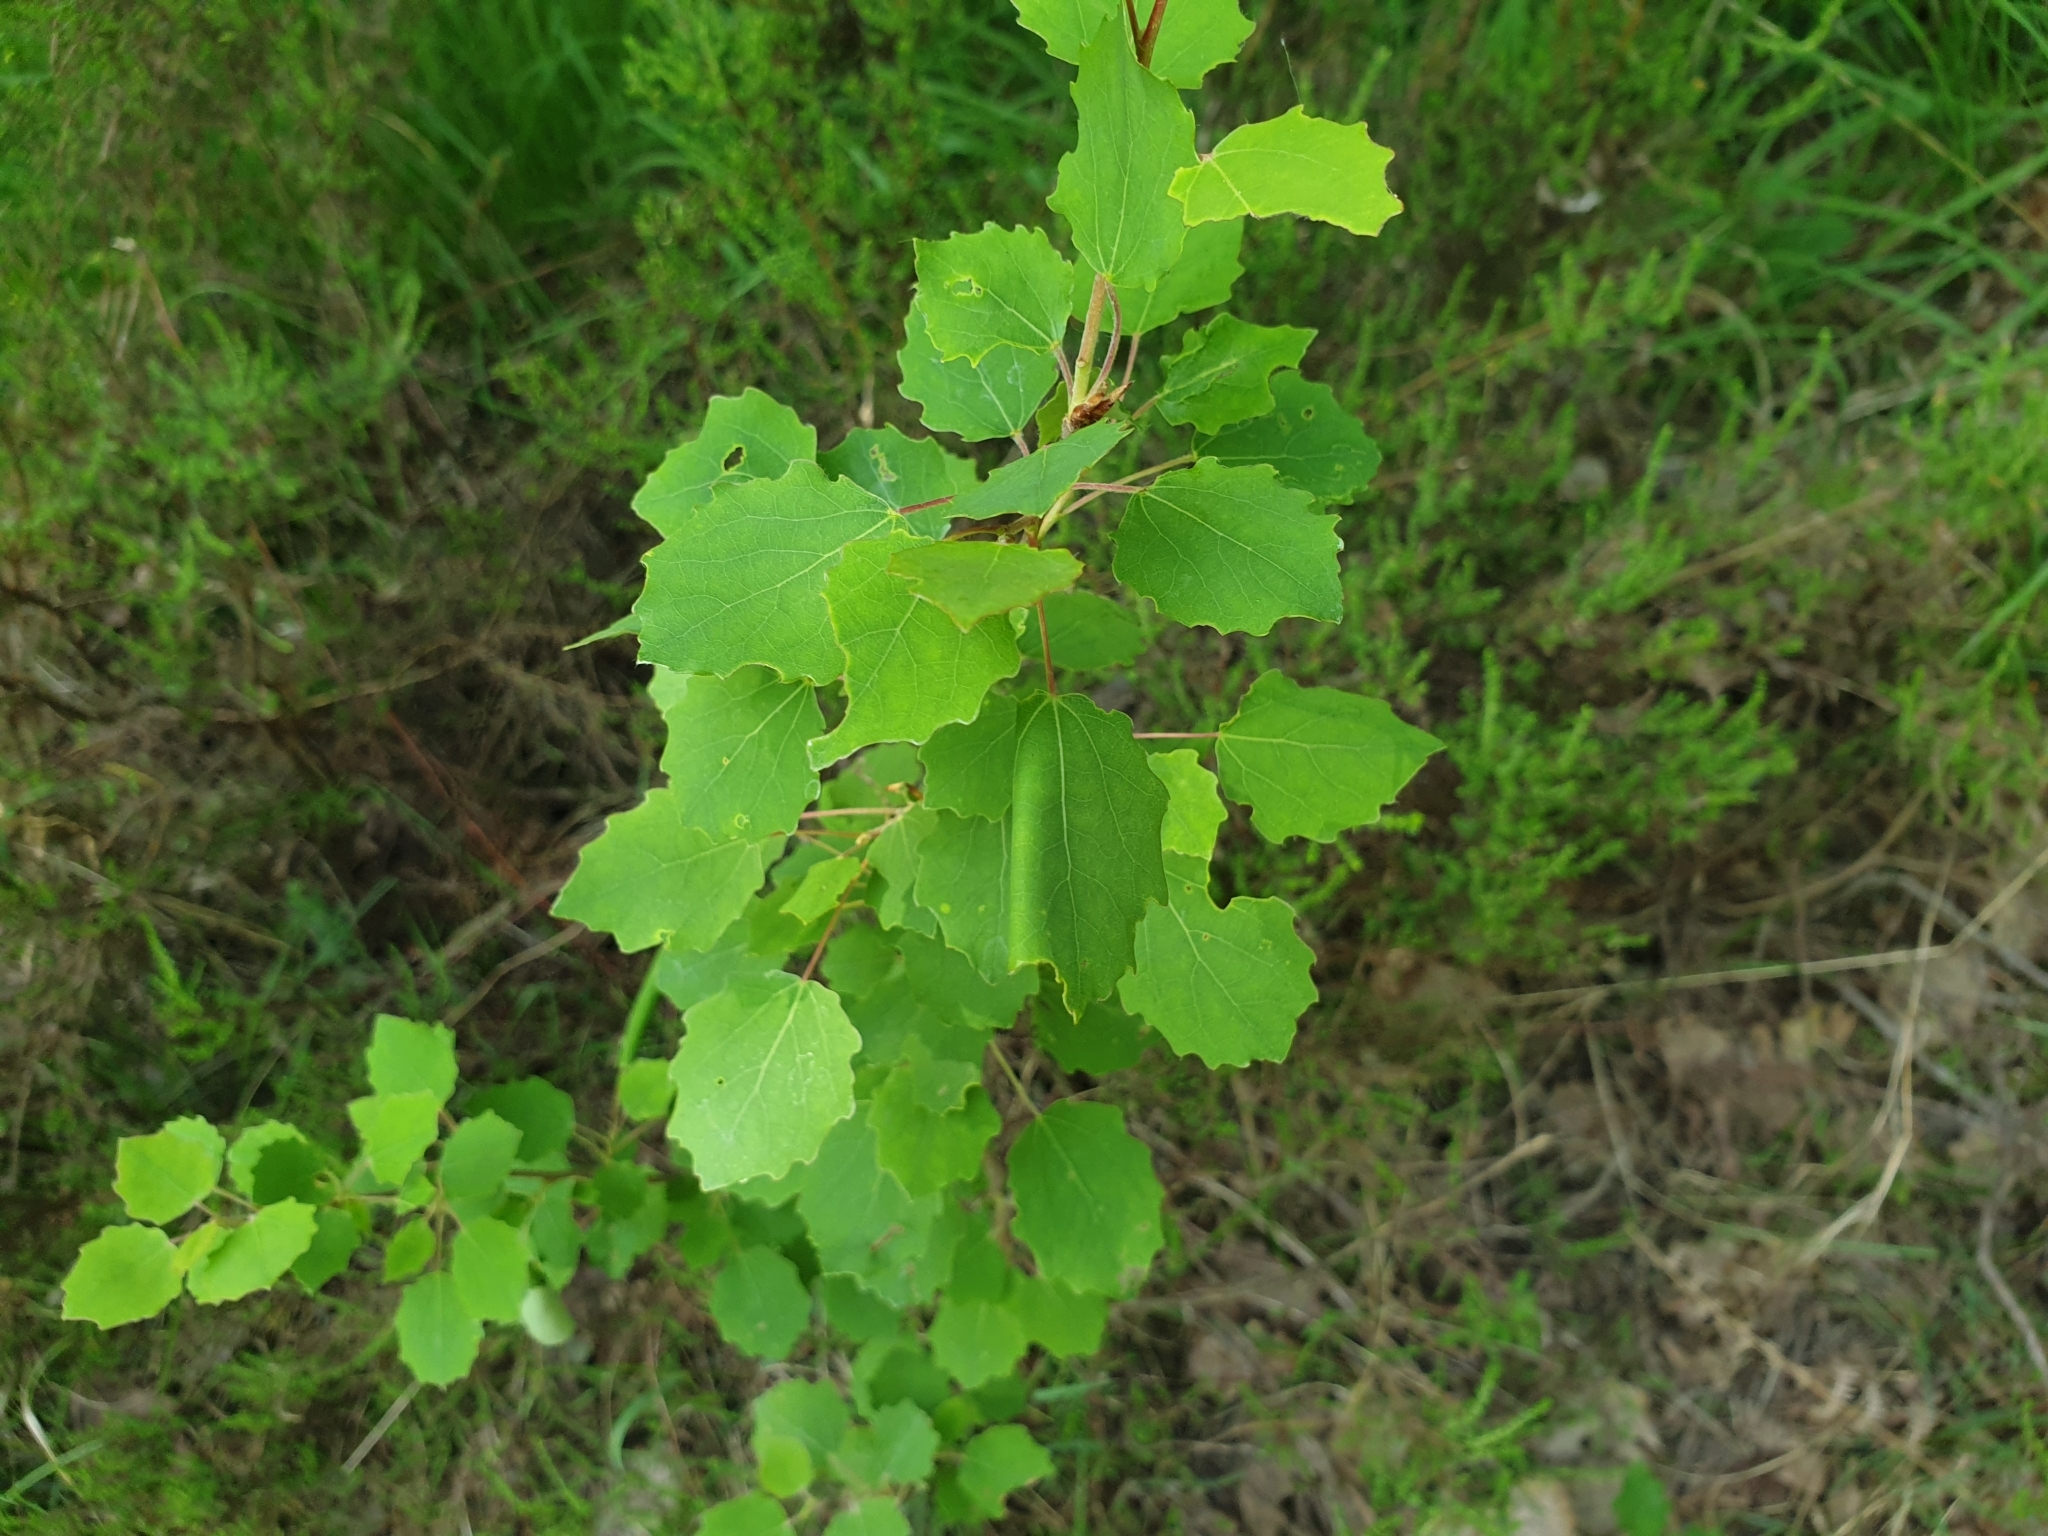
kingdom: Plantae
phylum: Tracheophyta
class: Magnoliopsida
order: Malpighiales
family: Salicaceae
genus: Populus
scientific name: Populus tremula
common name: European aspen
